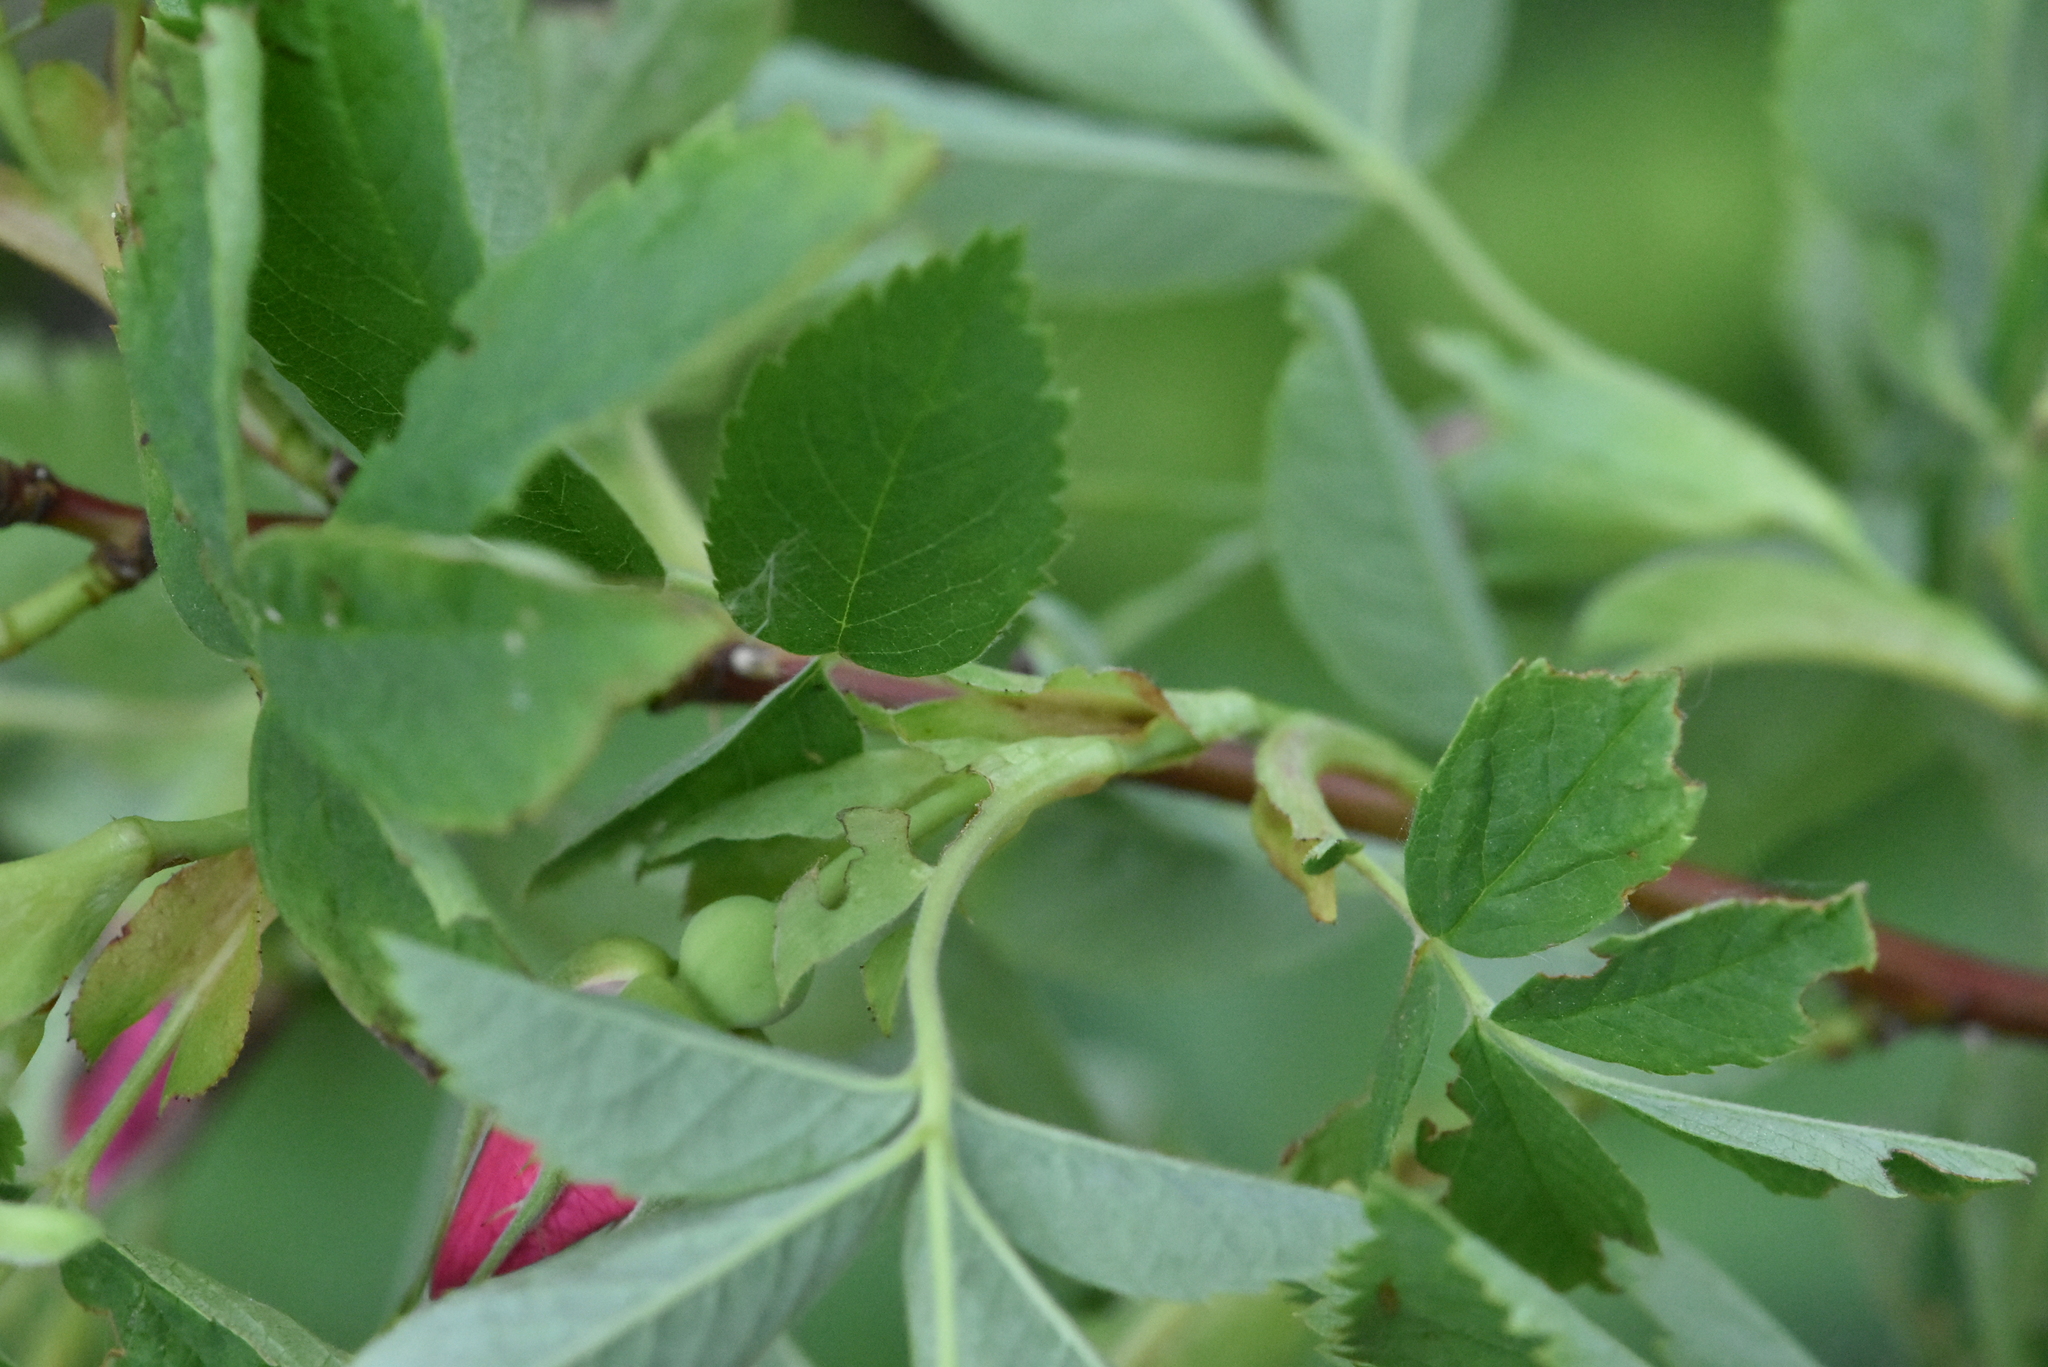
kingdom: Plantae
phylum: Tracheophyta
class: Magnoliopsida
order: Rosales
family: Rosaceae
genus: Rosa
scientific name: Rosa majalis
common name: Cinnamon rose
